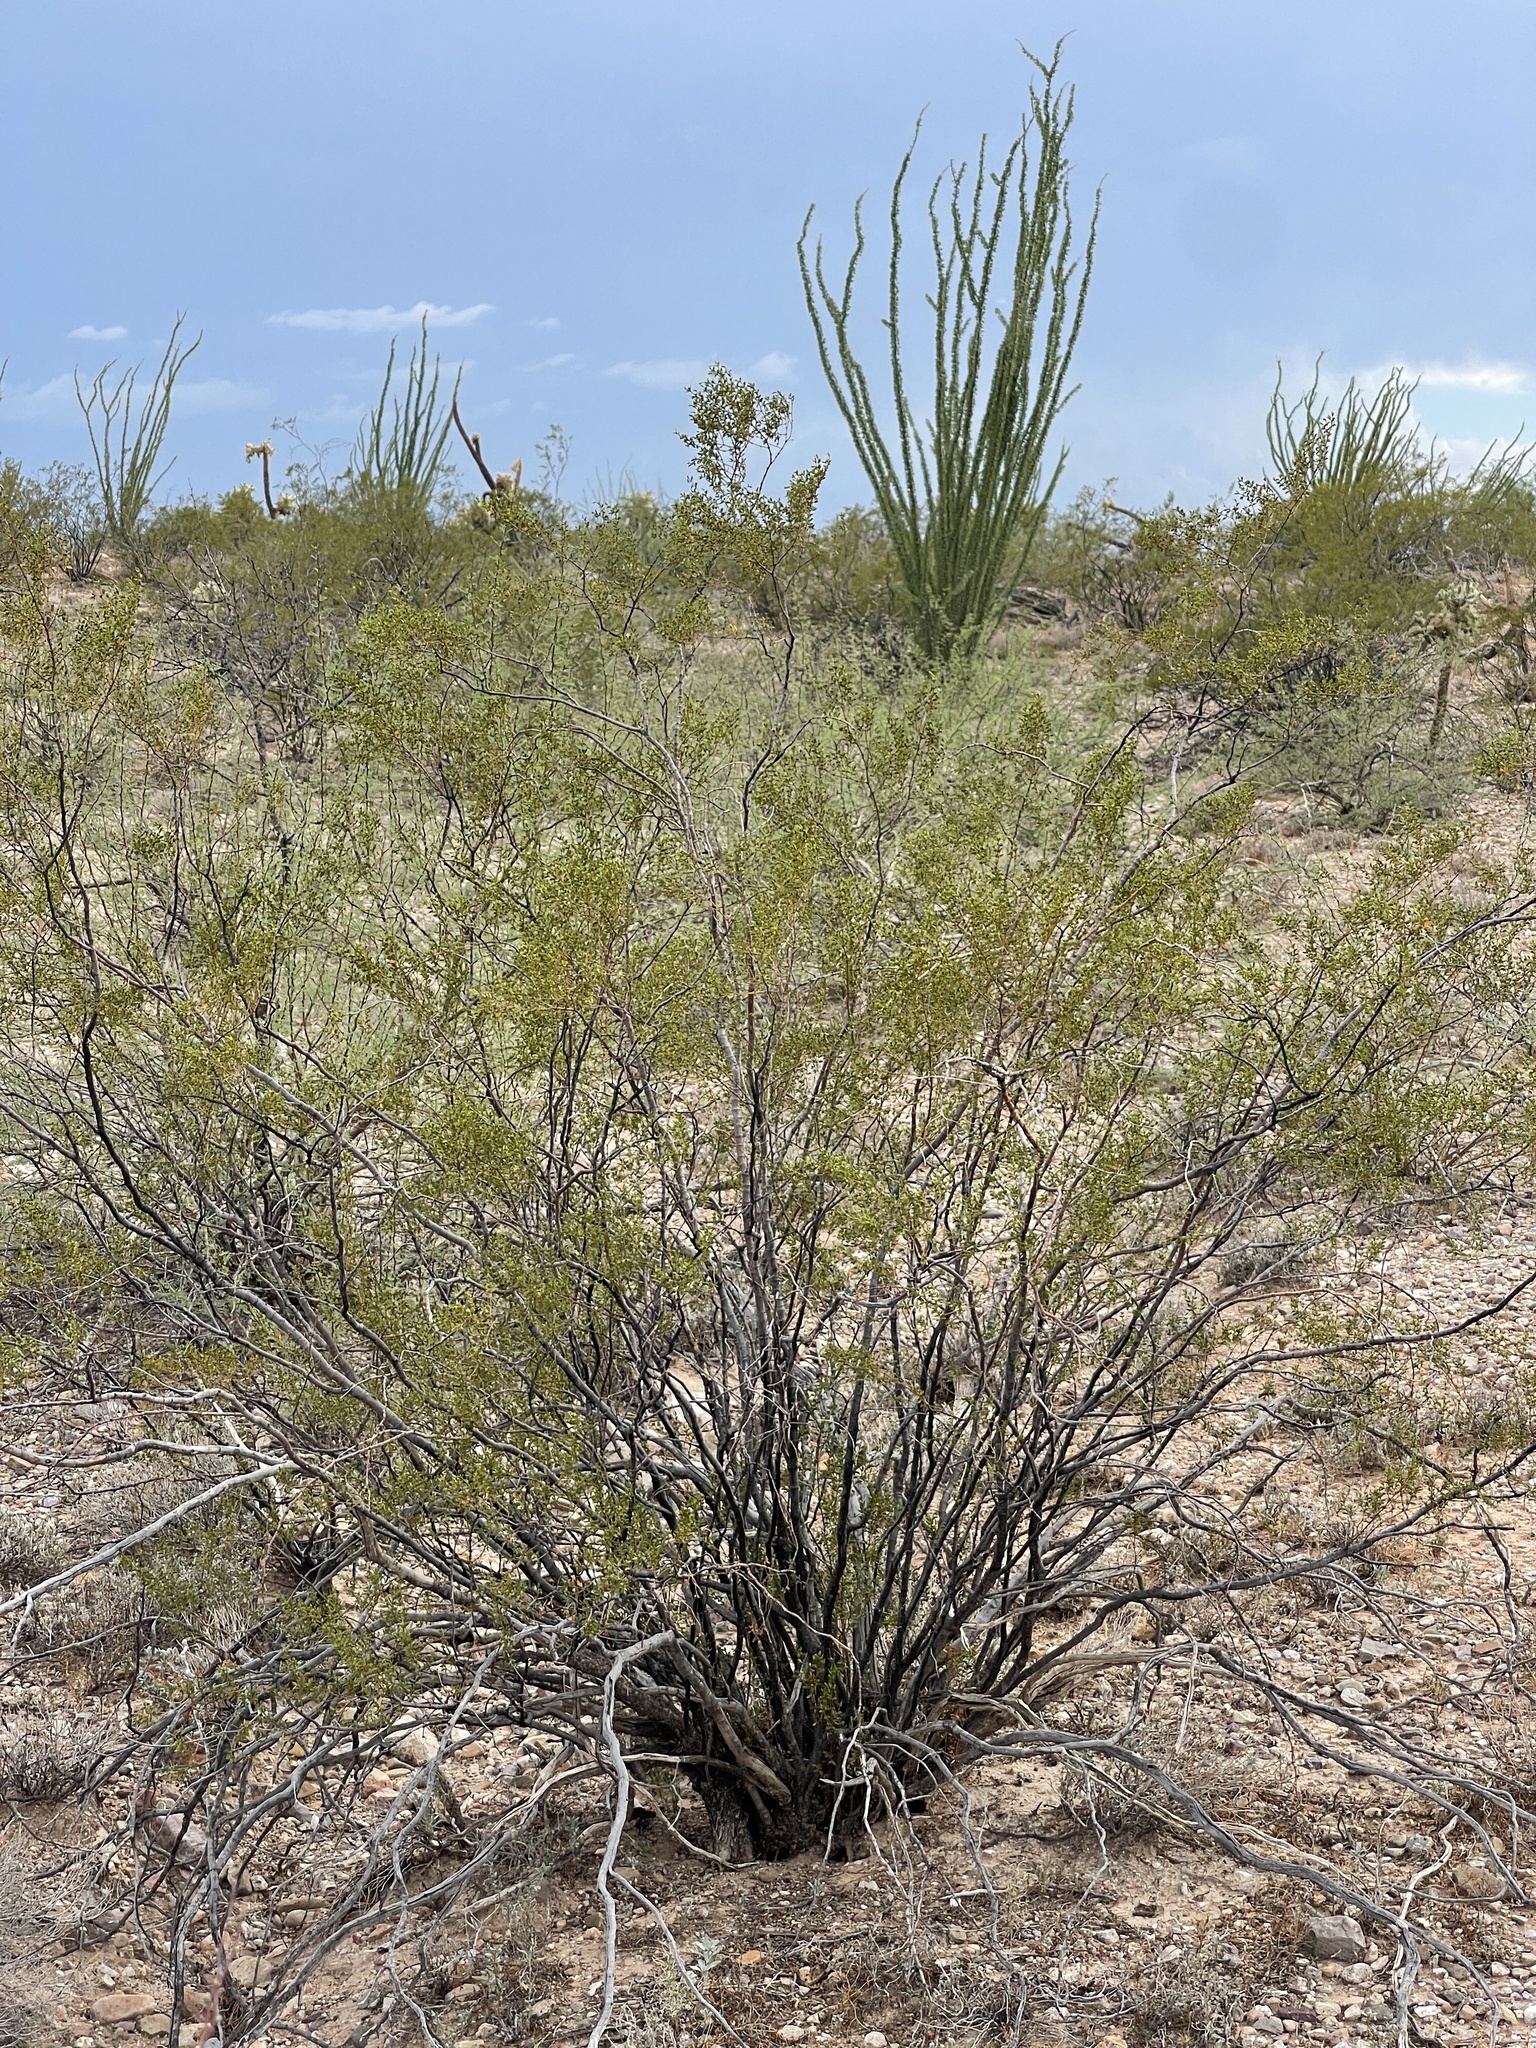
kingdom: Plantae
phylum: Tracheophyta
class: Magnoliopsida
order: Zygophyllales
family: Zygophyllaceae
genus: Larrea
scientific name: Larrea tridentata
